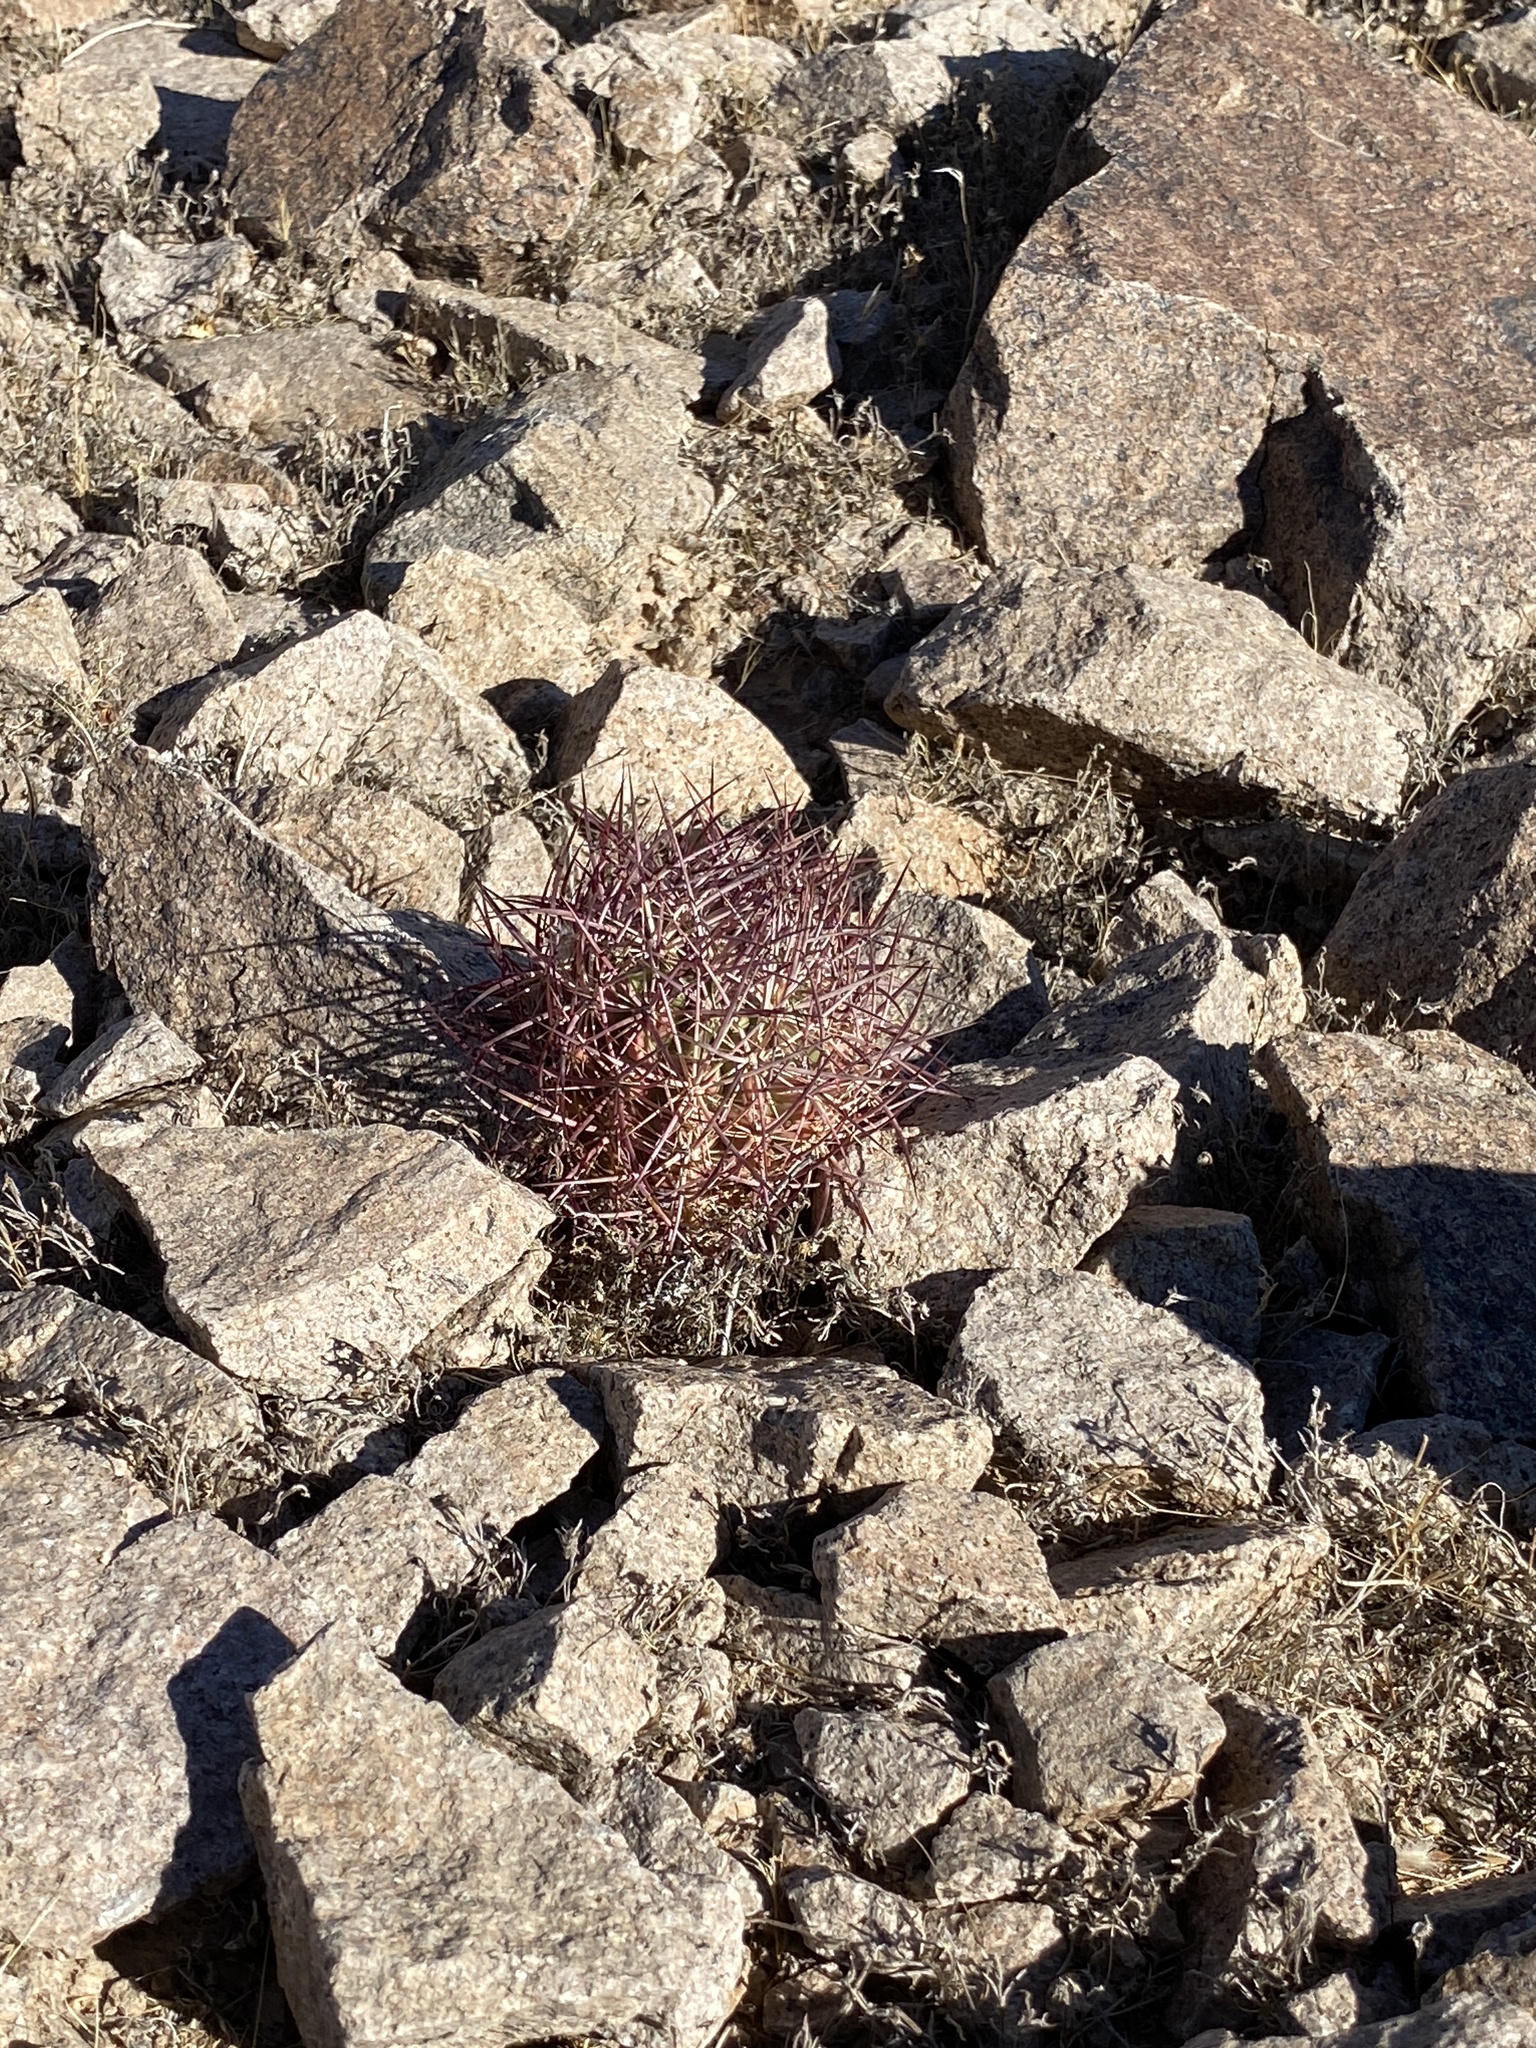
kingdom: Plantae
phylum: Tracheophyta
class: Magnoliopsida
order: Caryophyllales
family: Cactaceae
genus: Sclerocactus
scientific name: Sclerocactus johnsonii
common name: Eight-spine fishhook cactus
